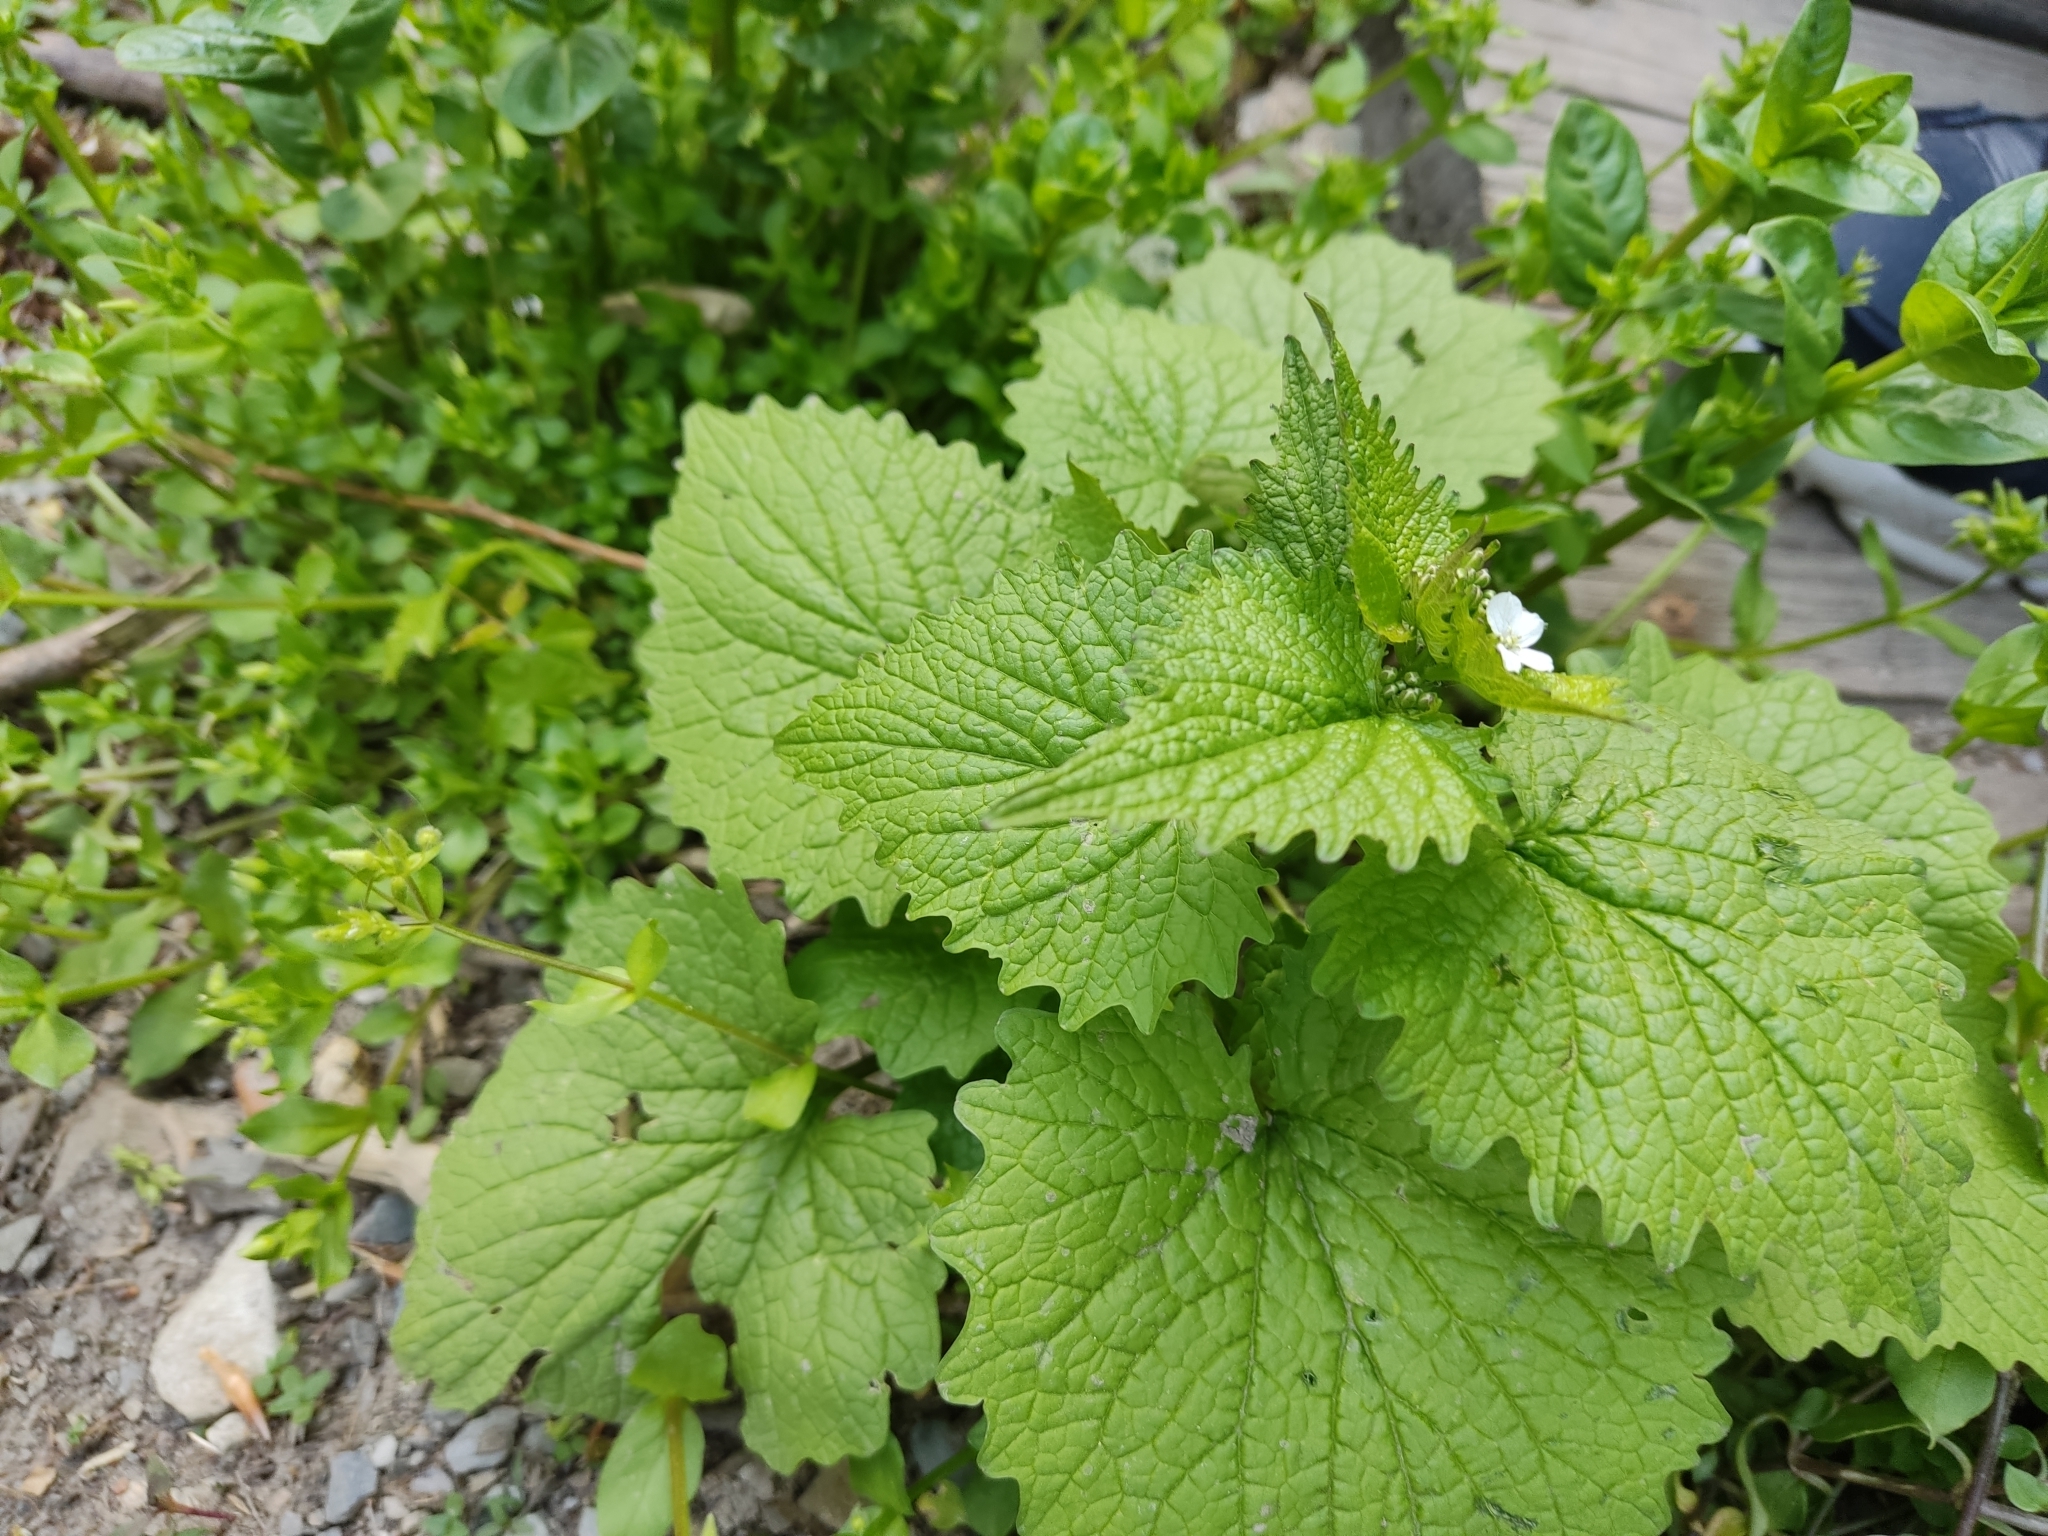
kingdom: Plantae
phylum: Tracheophyta
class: Magnoliopsida
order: Brassicales
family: Brassicaceae
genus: Alliaria
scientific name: Alliaria petiolata
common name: Garlic mustard
